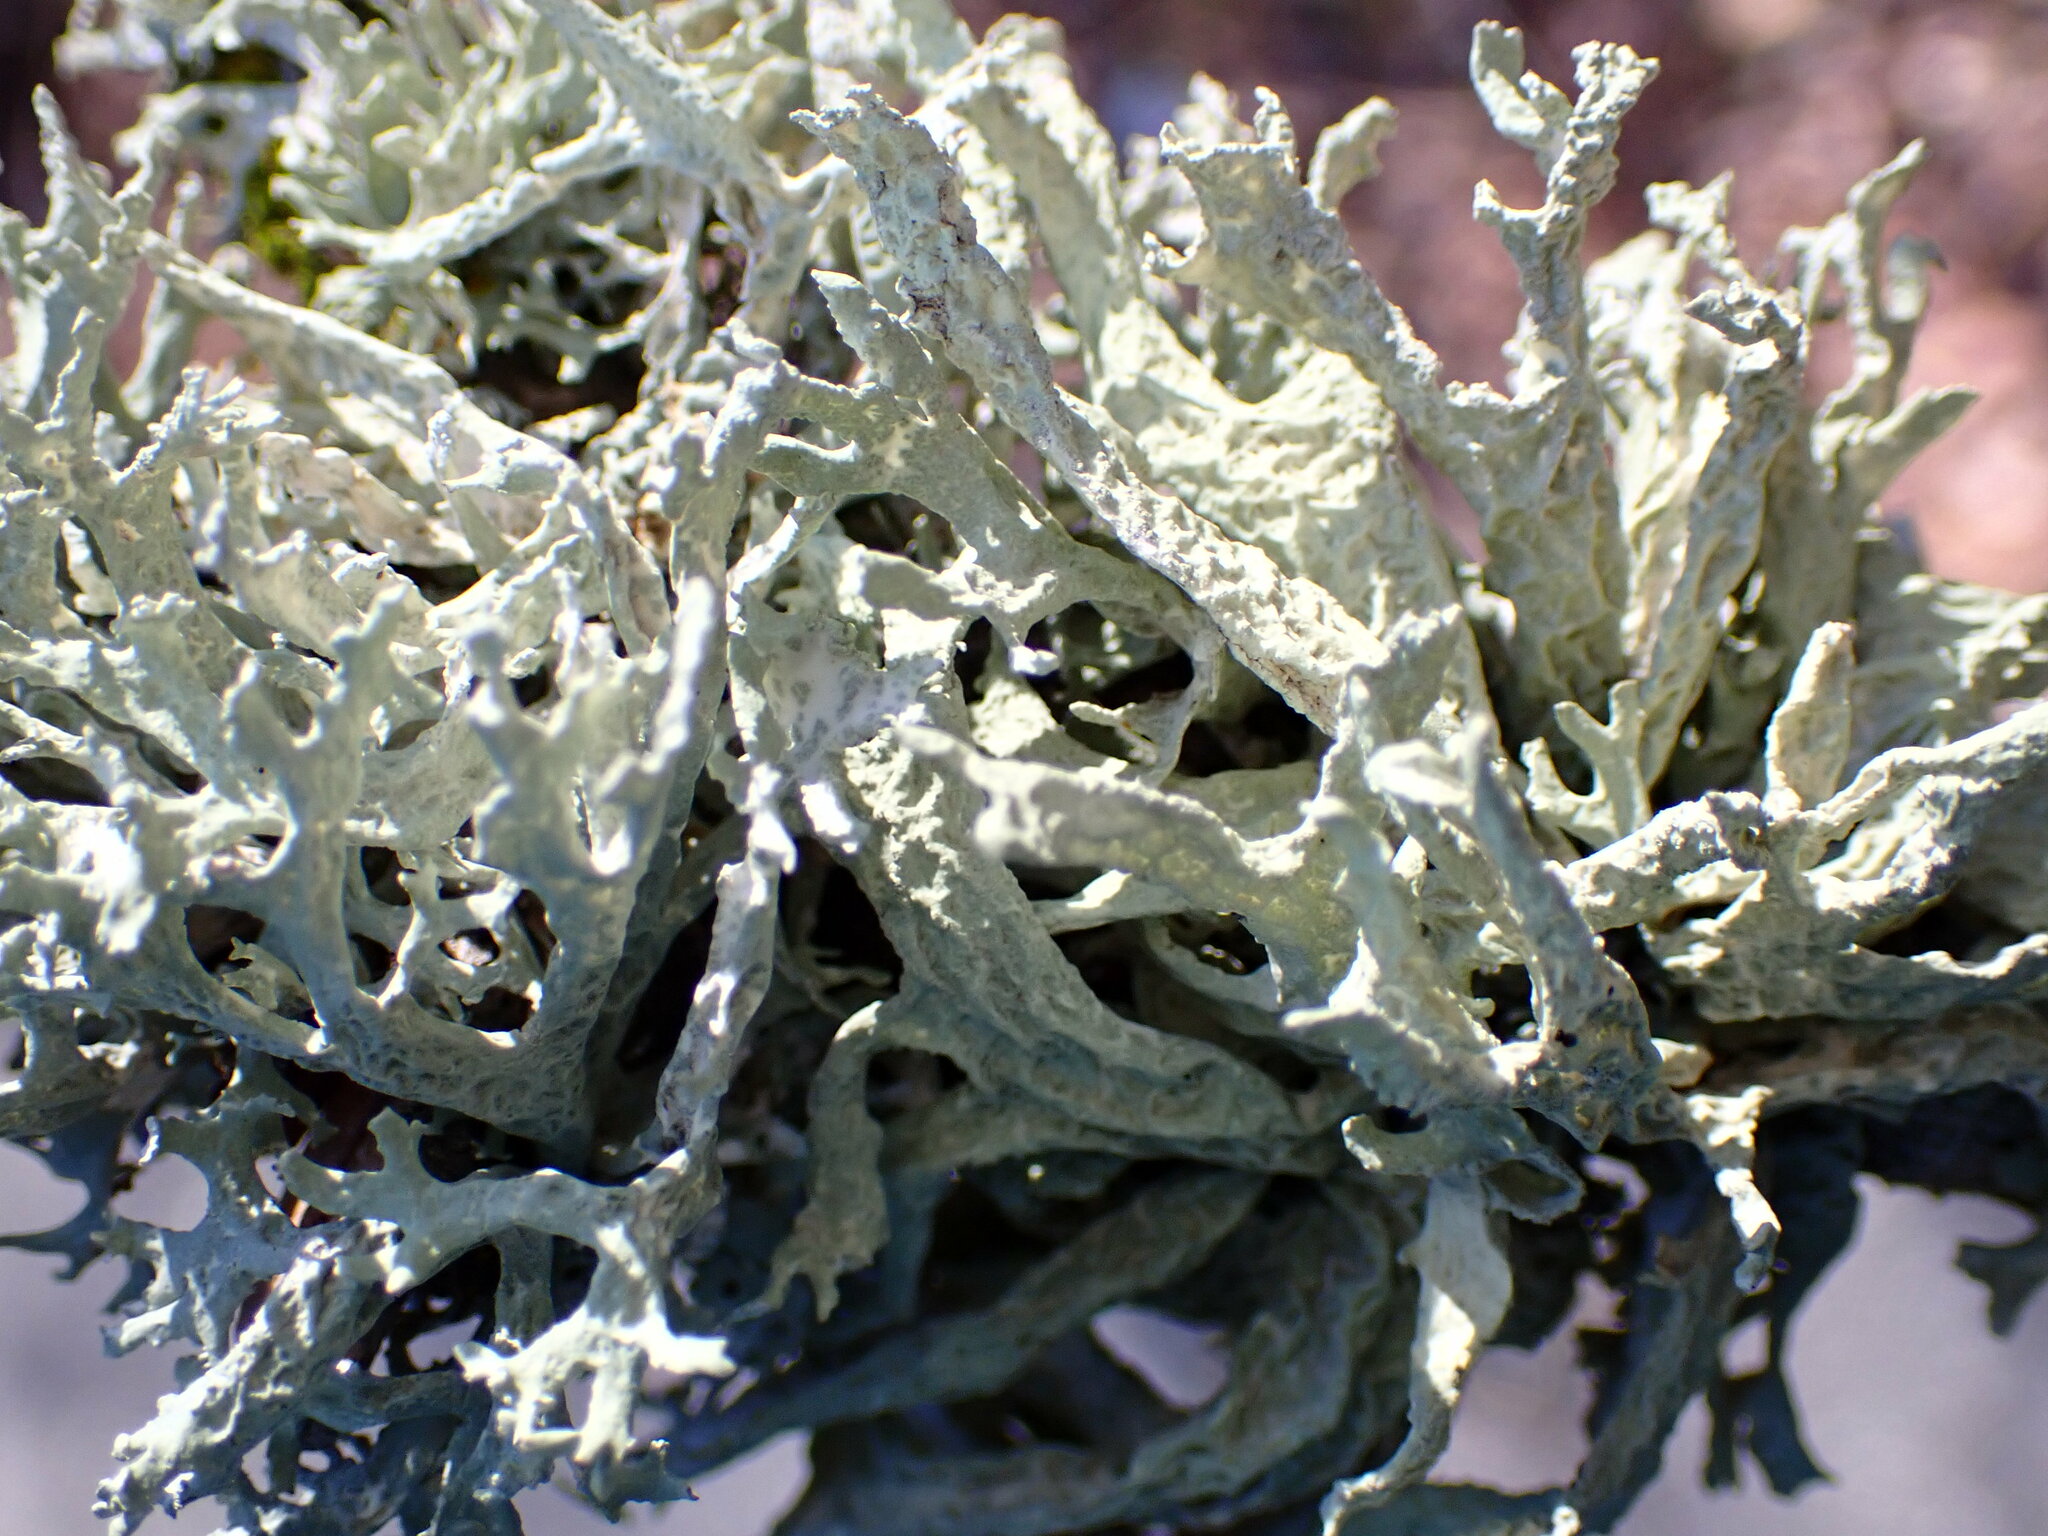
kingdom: Fungi
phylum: Ascomycota
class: Lecanoromycetes
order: Lecanorales
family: Parmeliaceae
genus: Evernia
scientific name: Evernia prunastri
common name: Oak moss
